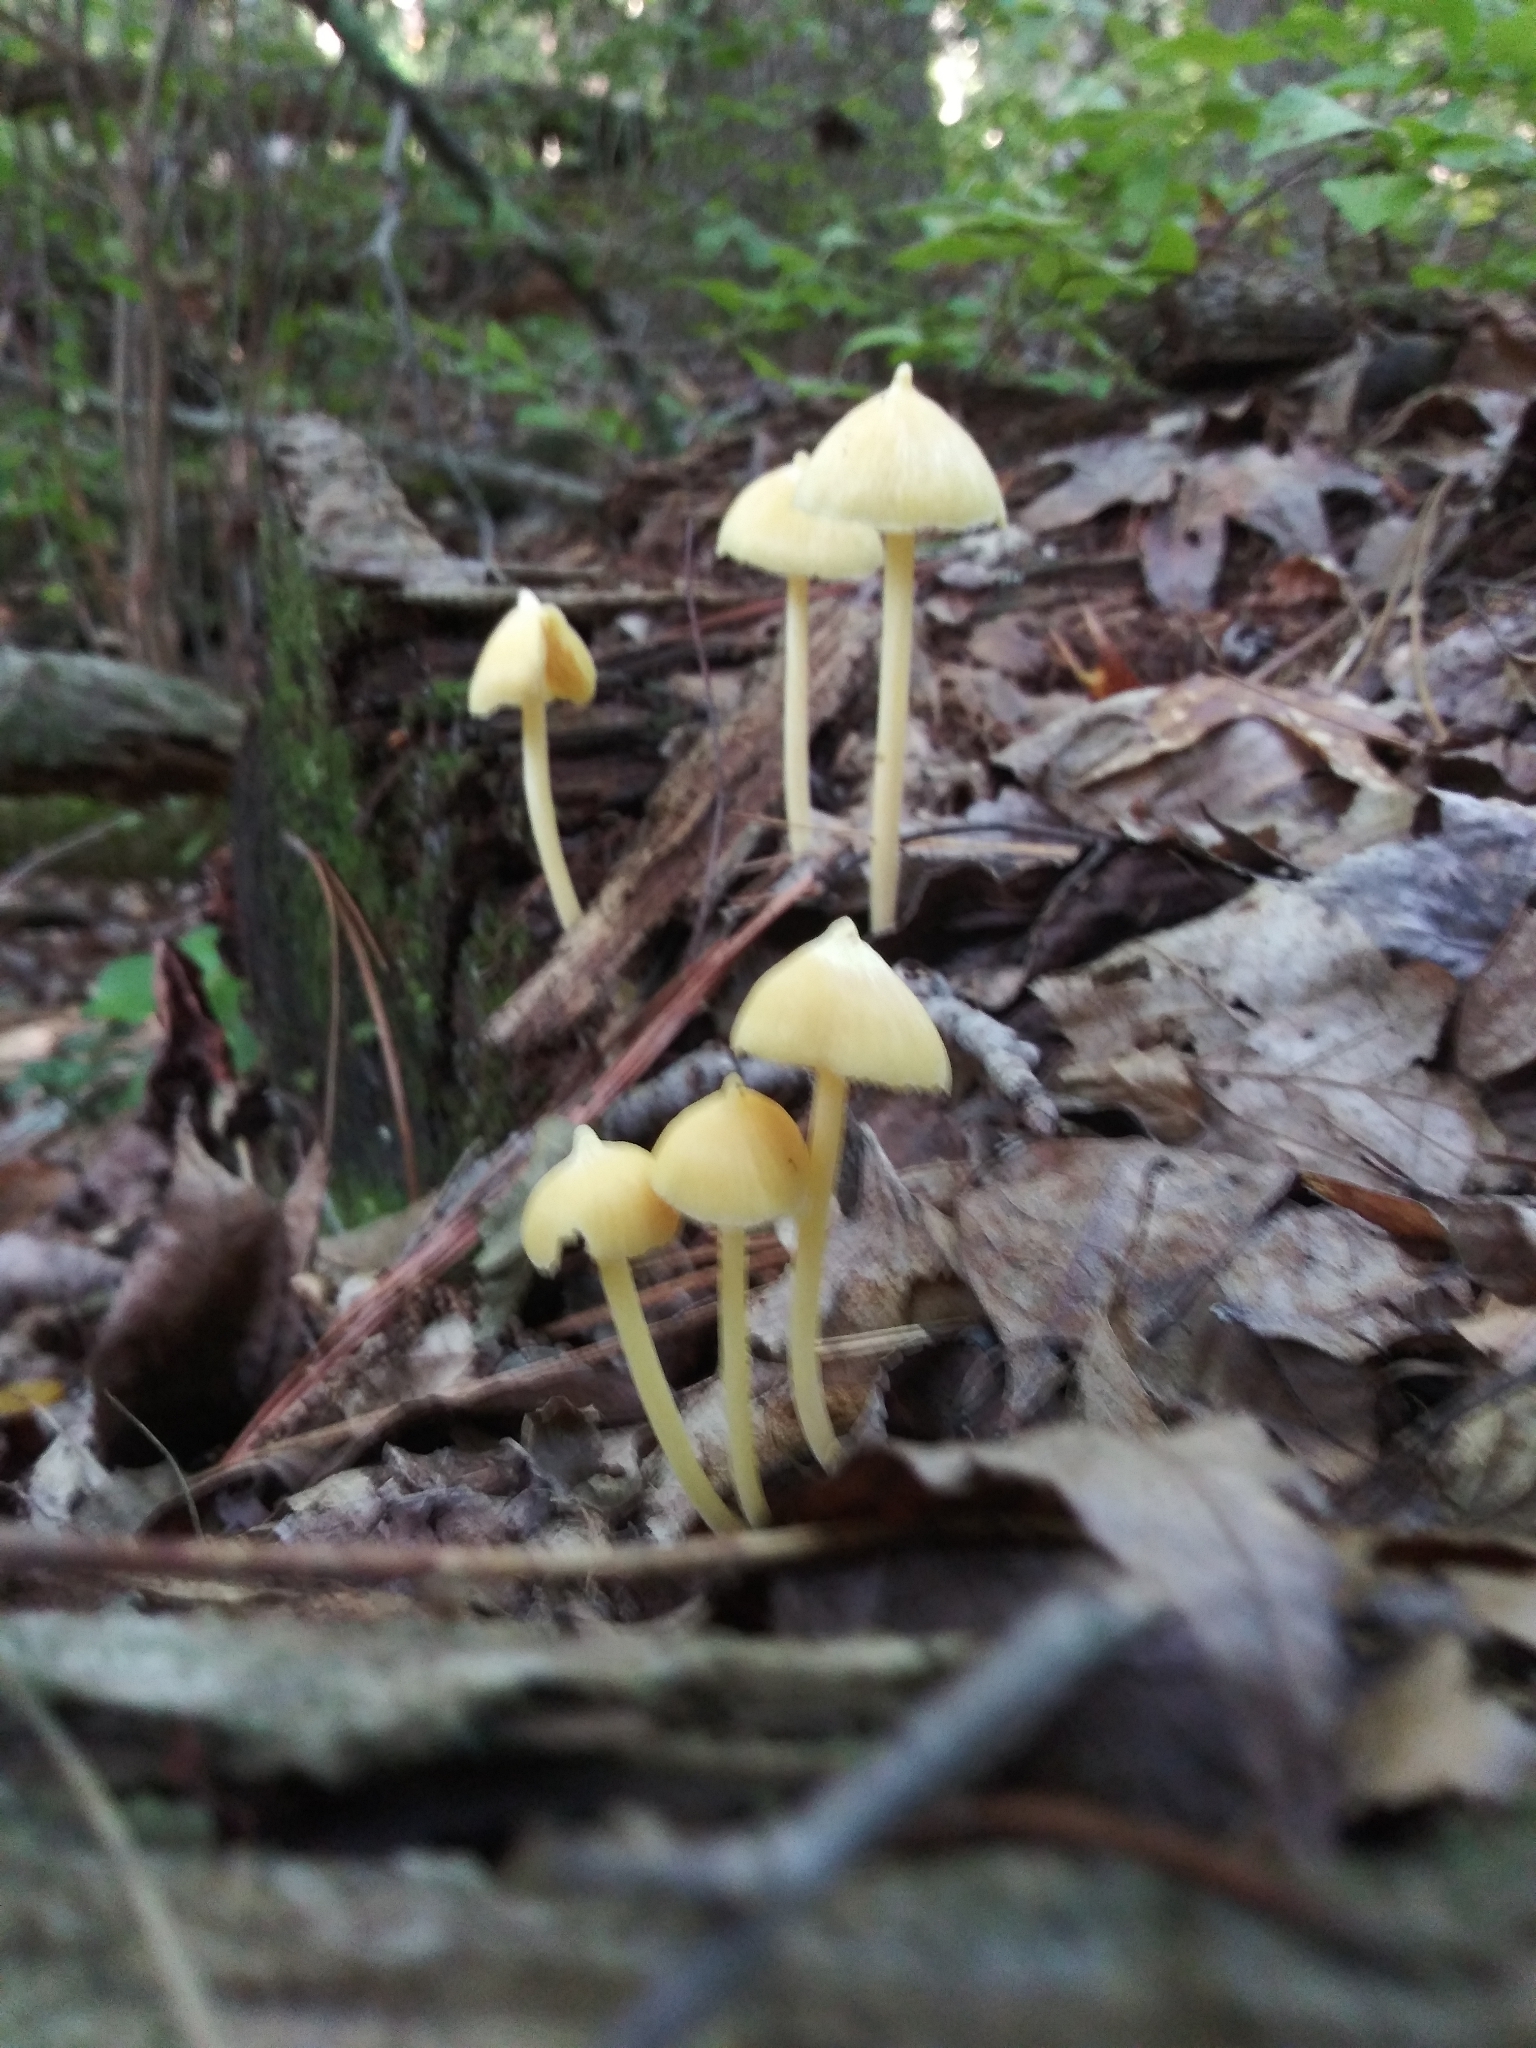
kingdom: Fungi
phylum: Basidiomycota
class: Agaricomycetes
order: Agaricales
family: Entolomataceae
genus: Entoloma
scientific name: Entoloma murrayi
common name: Yellow unicorn entoloma
